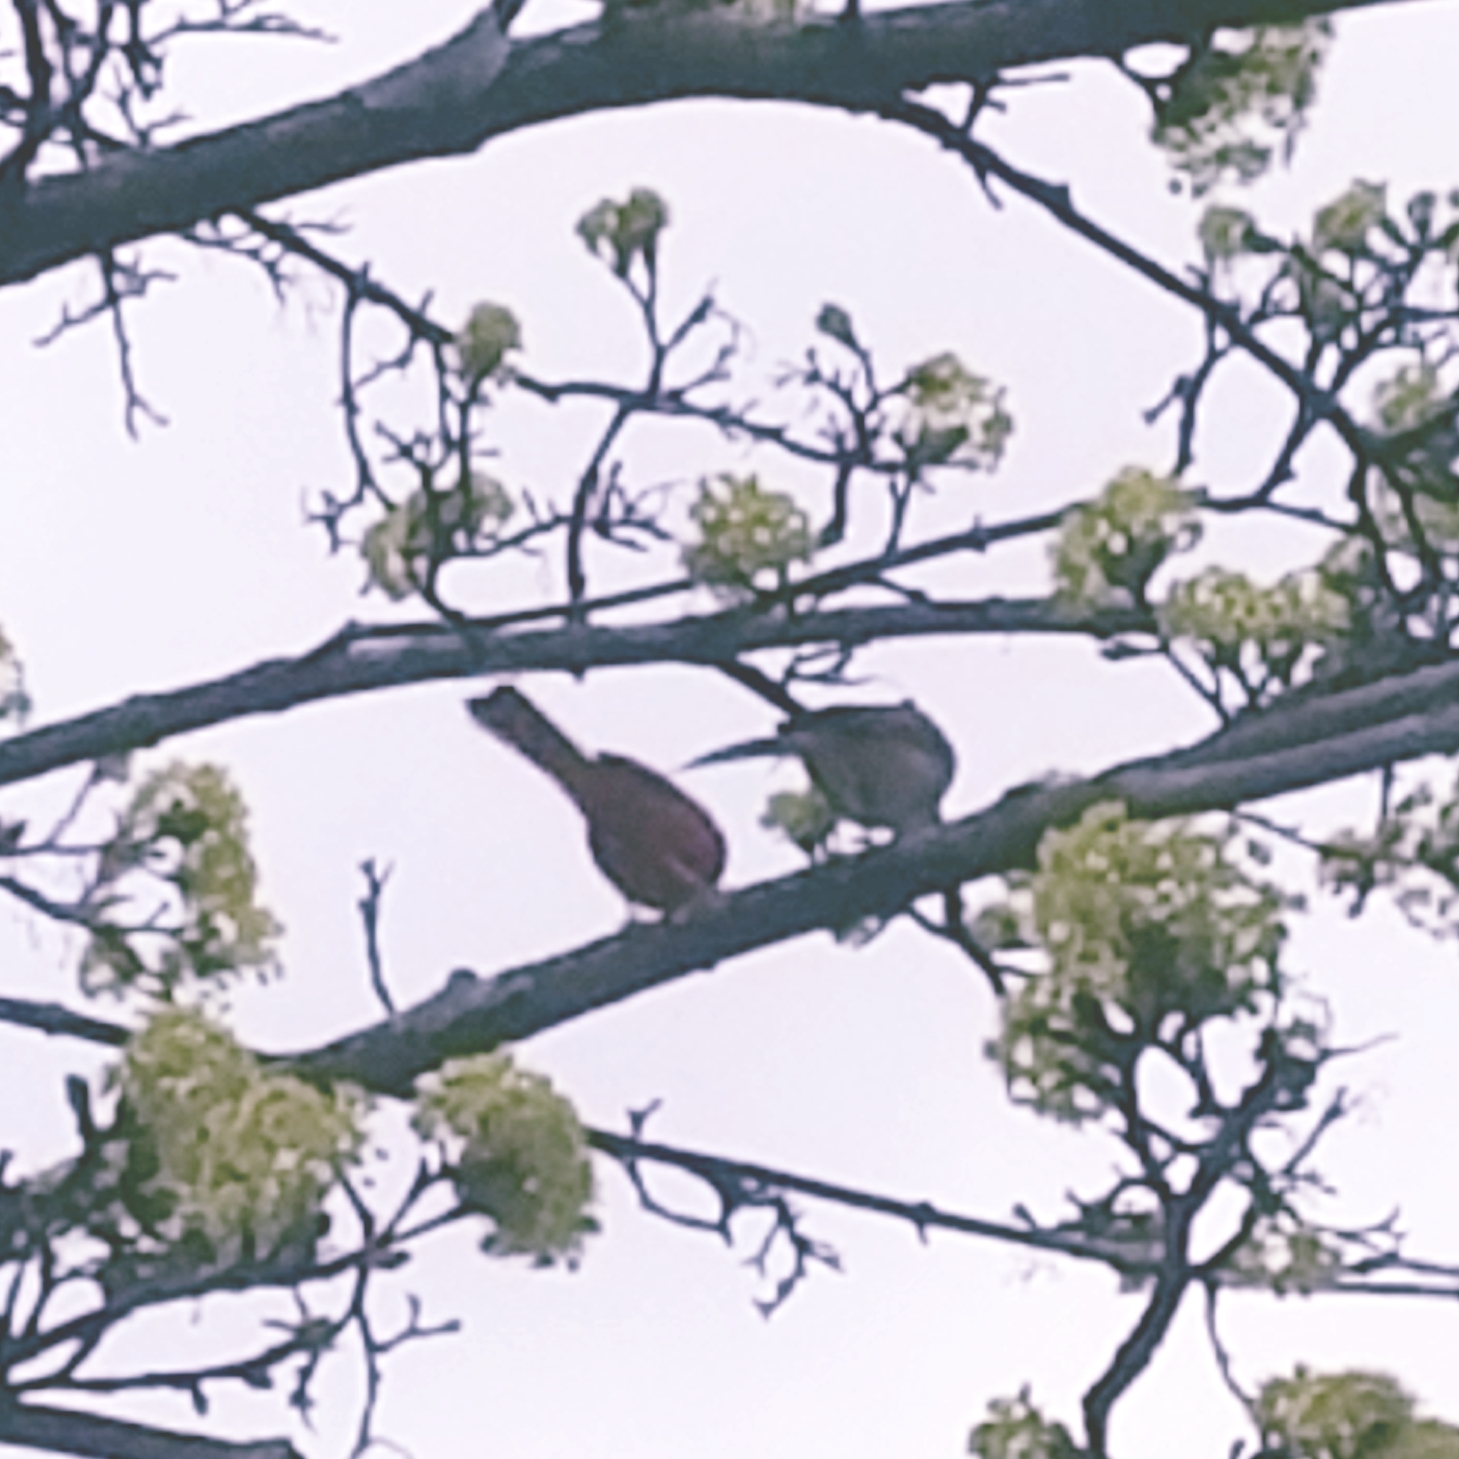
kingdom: Animalia
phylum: Chordata
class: Aves
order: Passeriformes
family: Cardinalidae
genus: Cardinalis
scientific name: Cardinalis cardinalis
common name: Northern cardinal
